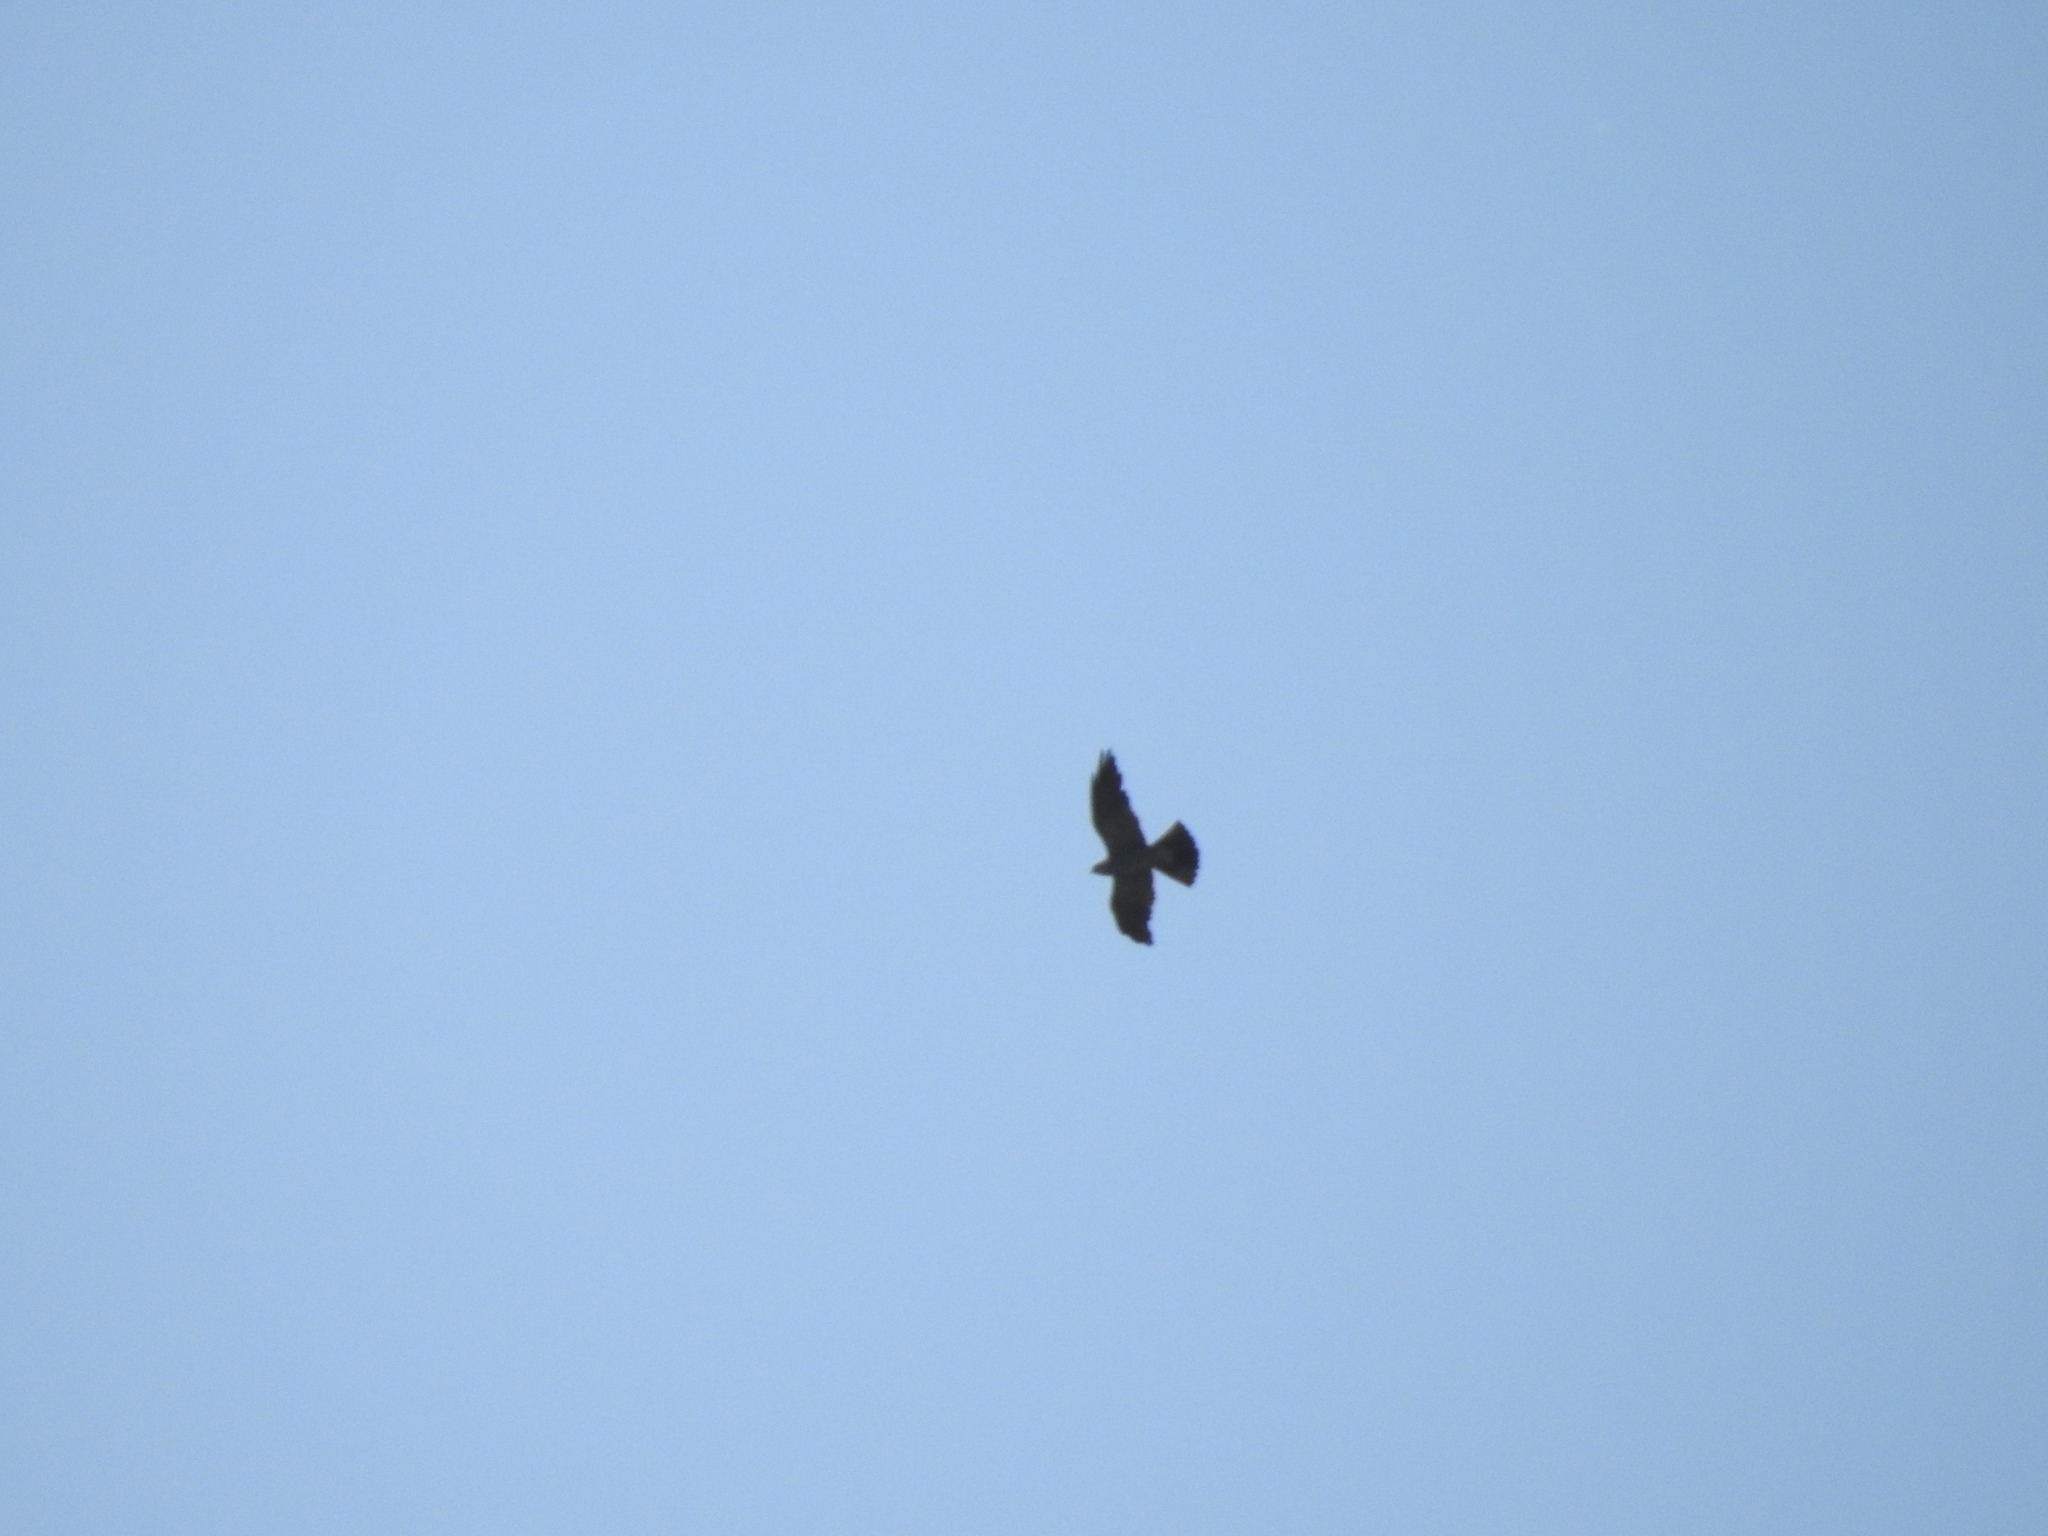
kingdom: Animalia
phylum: Chordata
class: Aves
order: Accipitriformes
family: Accipitridae
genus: Ictinia
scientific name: Ictinia mississippiensis
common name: Mississippi kite
